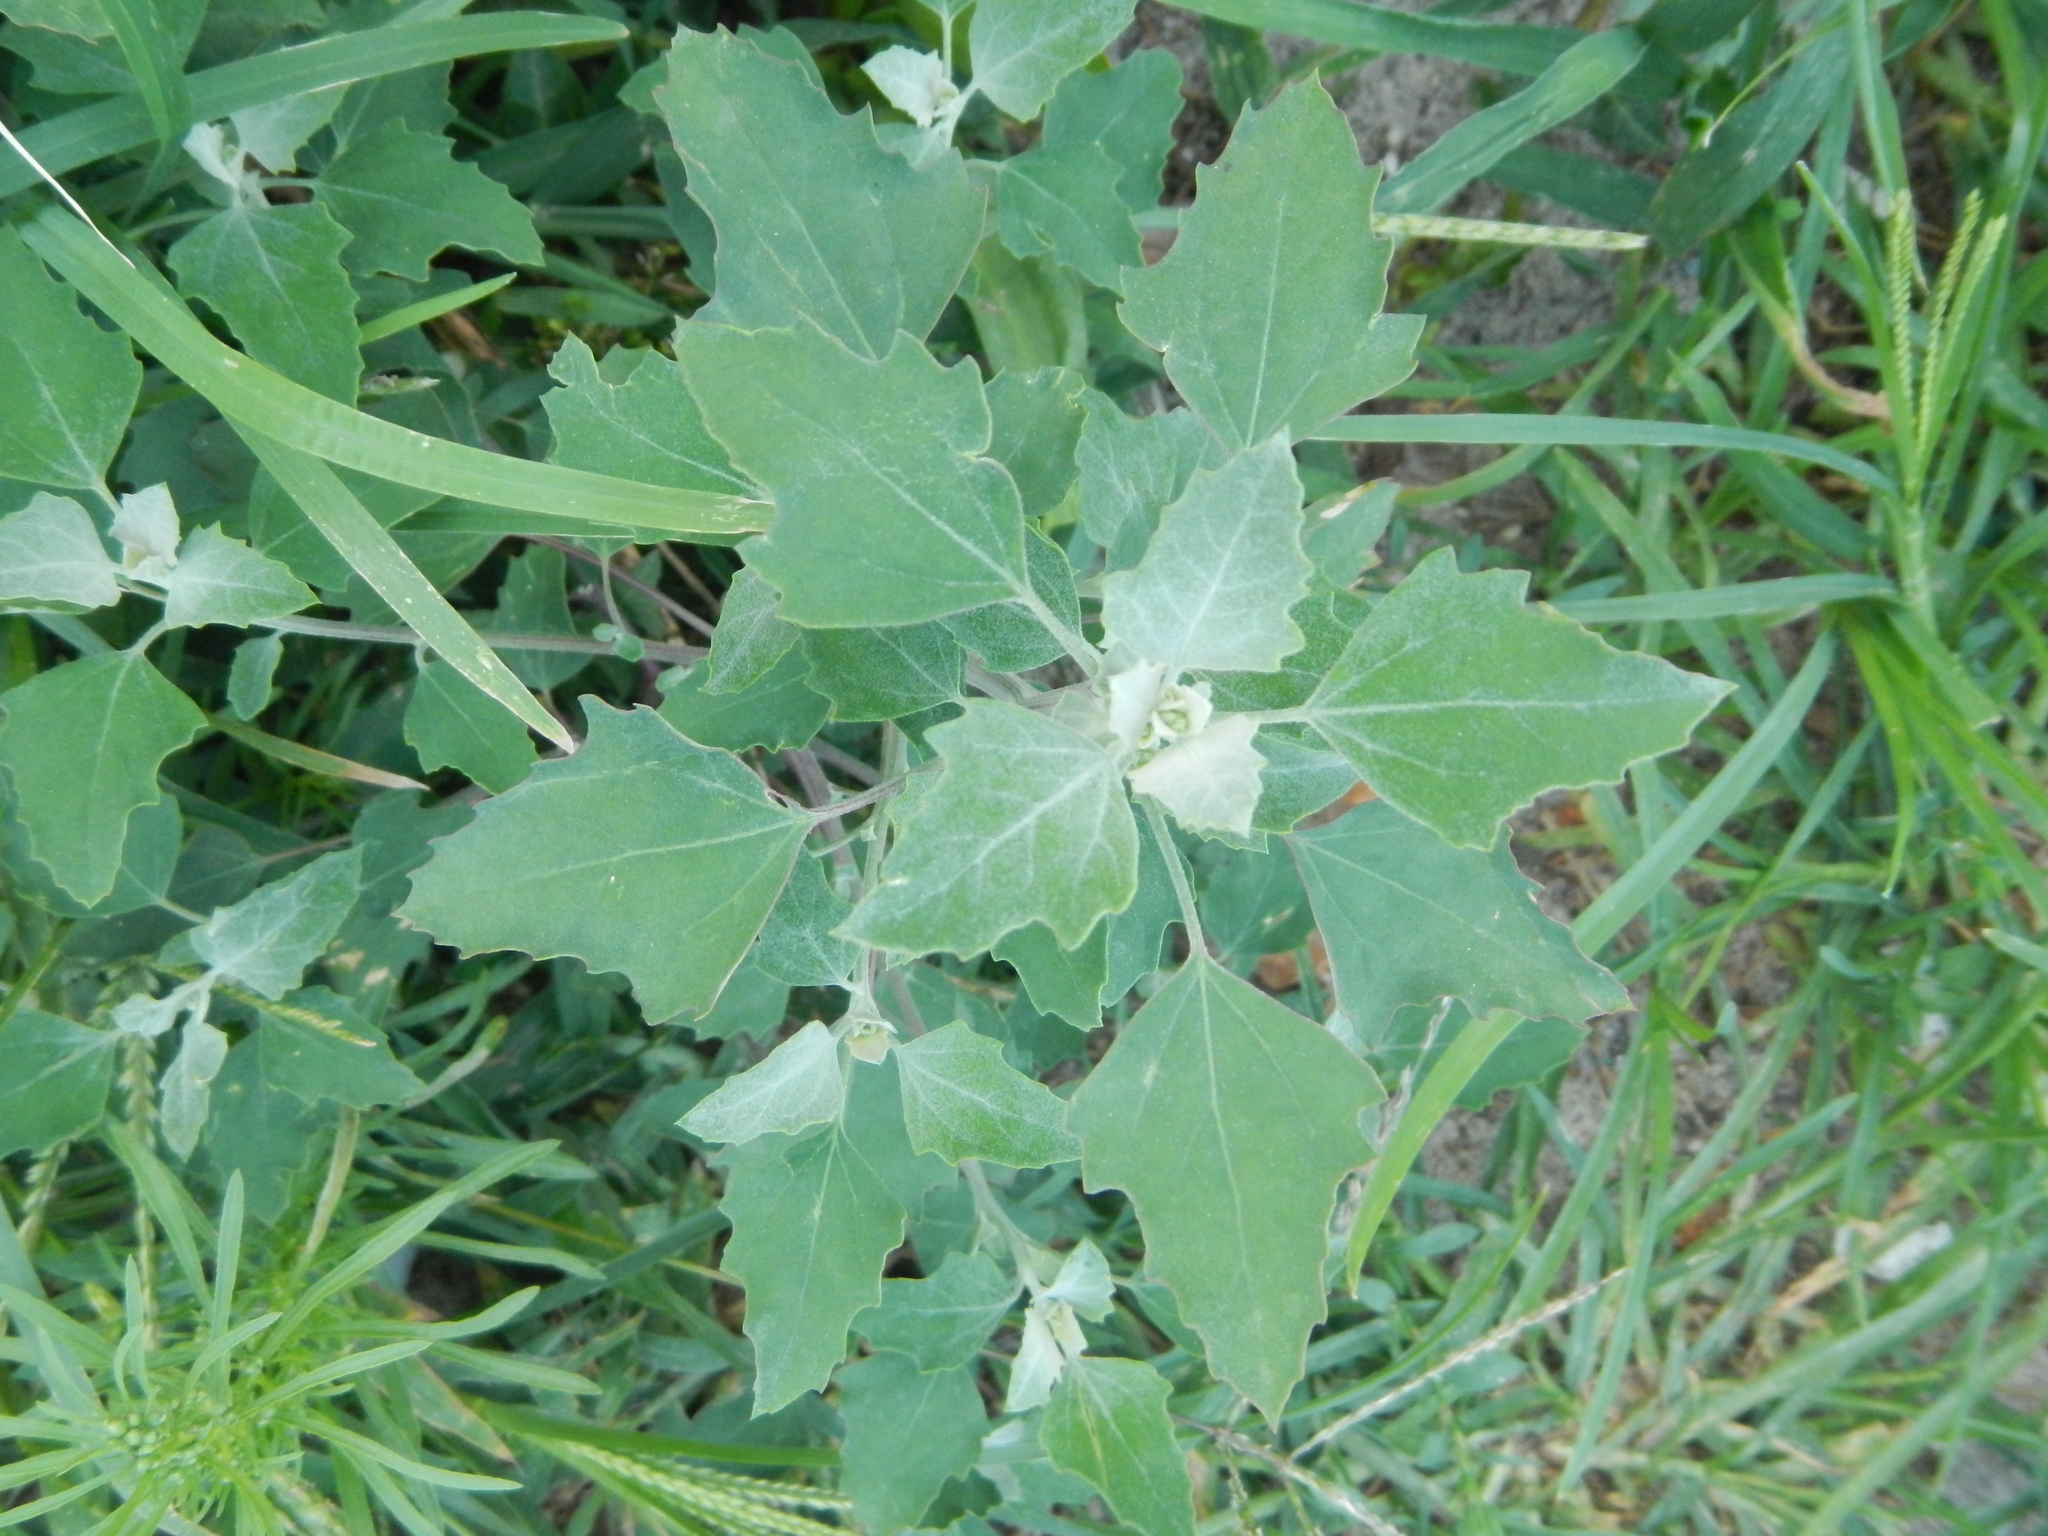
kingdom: Plantae
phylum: Tracheophyta
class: Magnoliopsida
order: Caryophyllales
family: Amaranthaceae
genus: Chenopodium
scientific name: Chenopodium album
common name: Fat-hen
